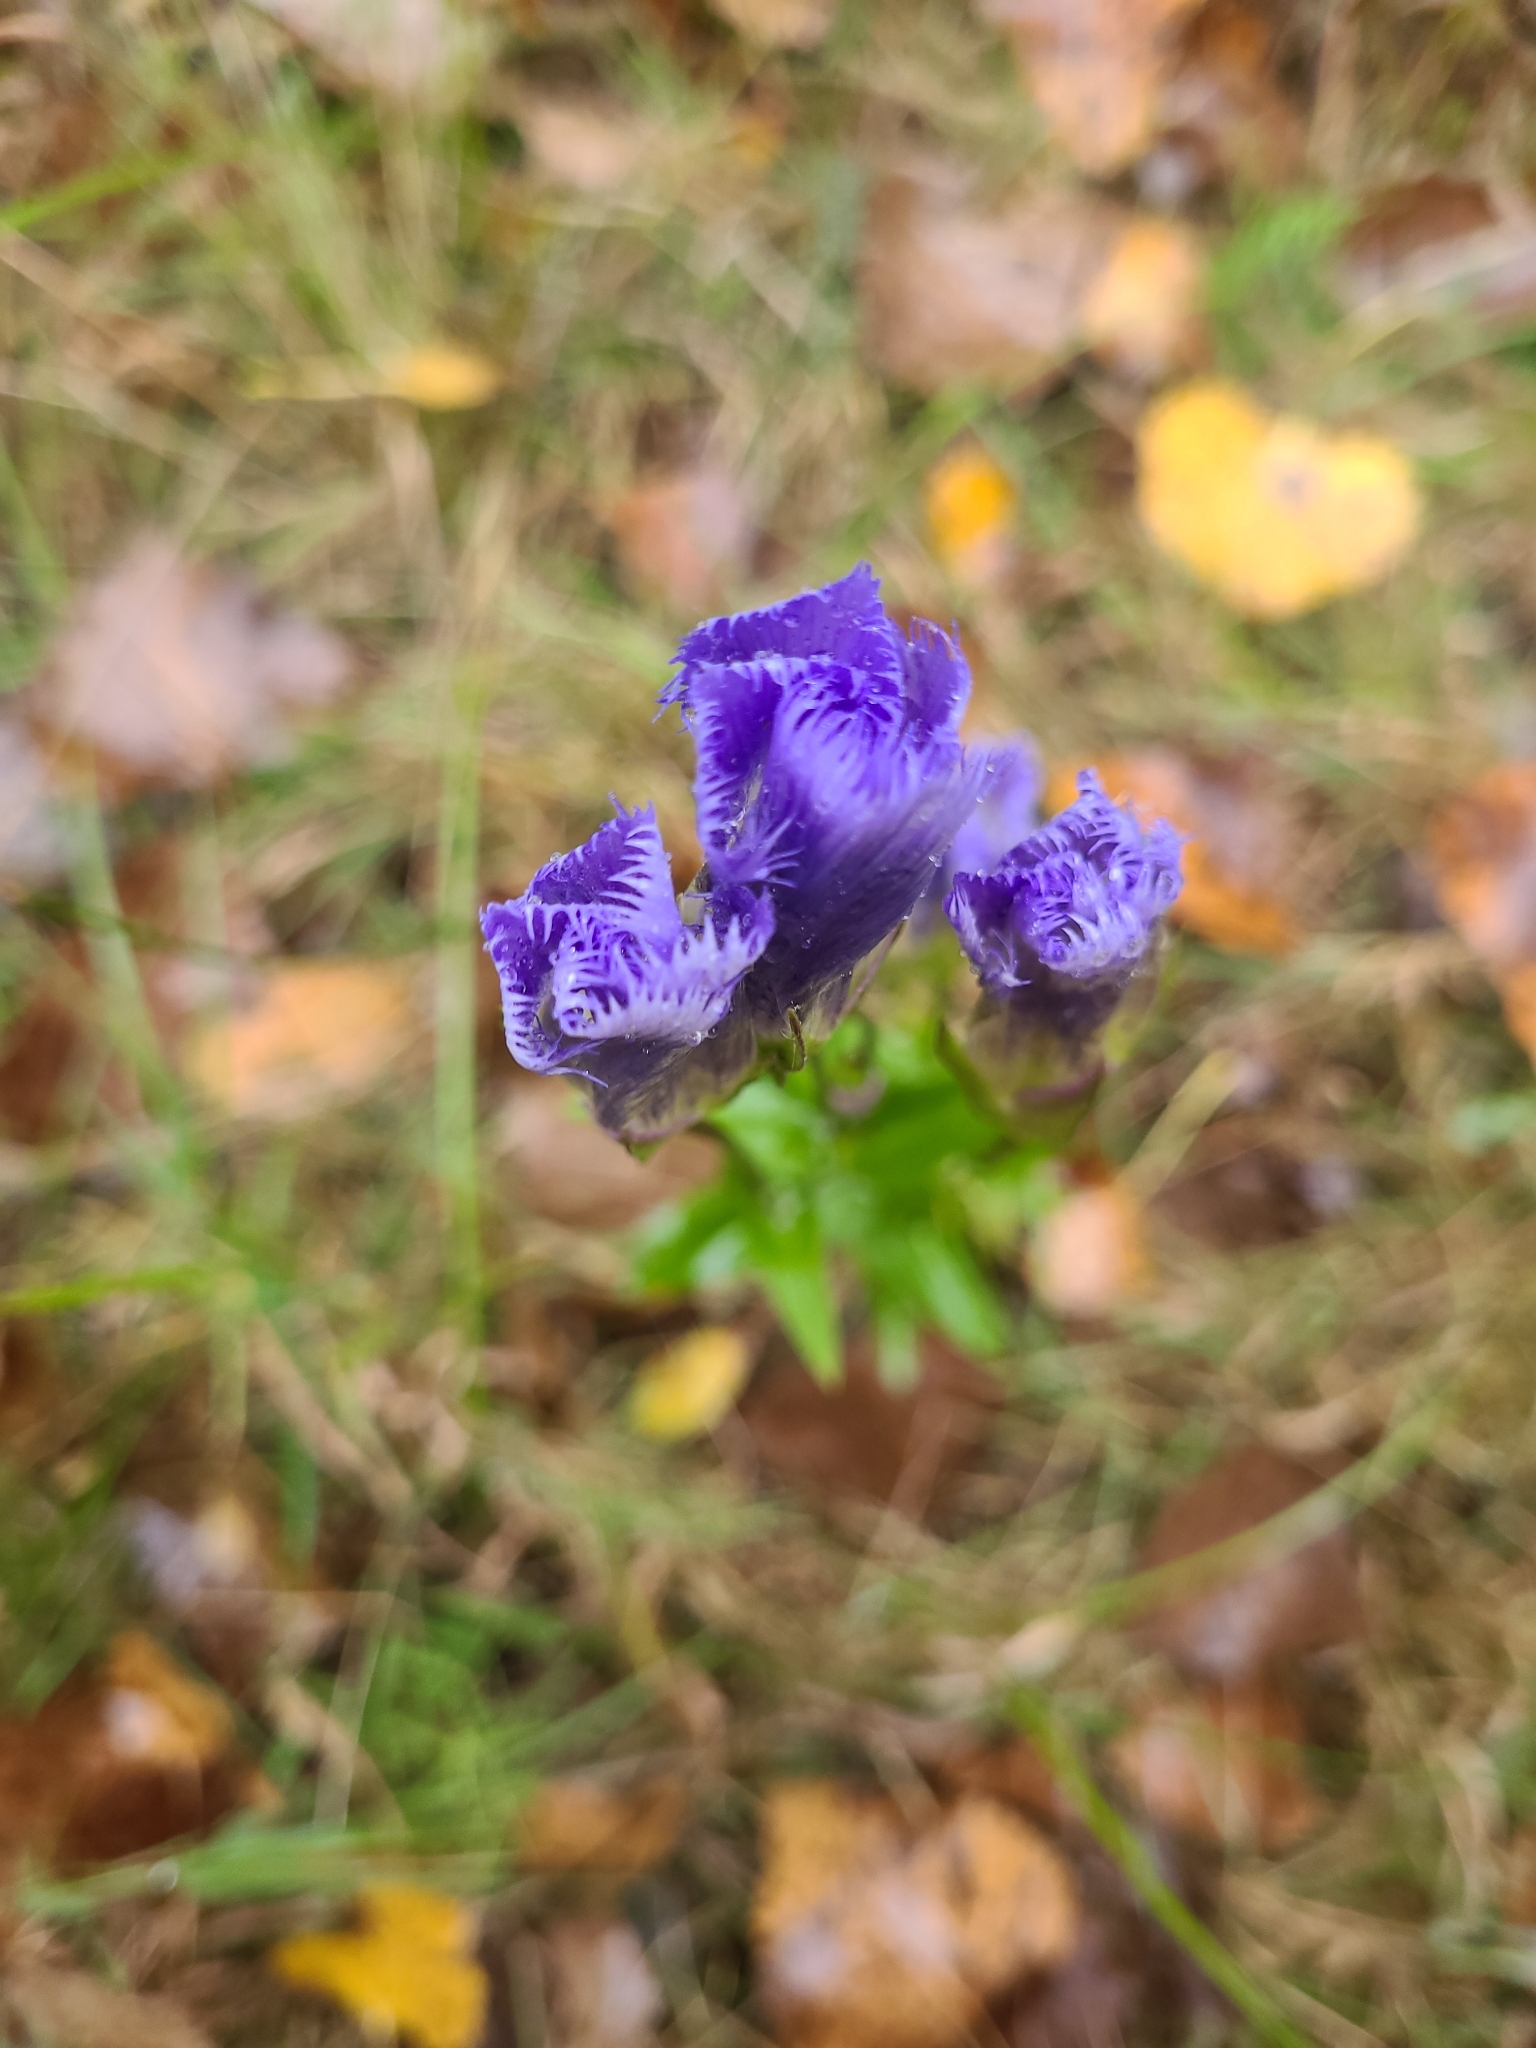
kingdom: Plantae
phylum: Tracheophyta
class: Magnoliopsida
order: Gentianales
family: Gentianaceae
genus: Gentianopsis
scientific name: Gentianopsis crinita
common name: Fringed-gentian
